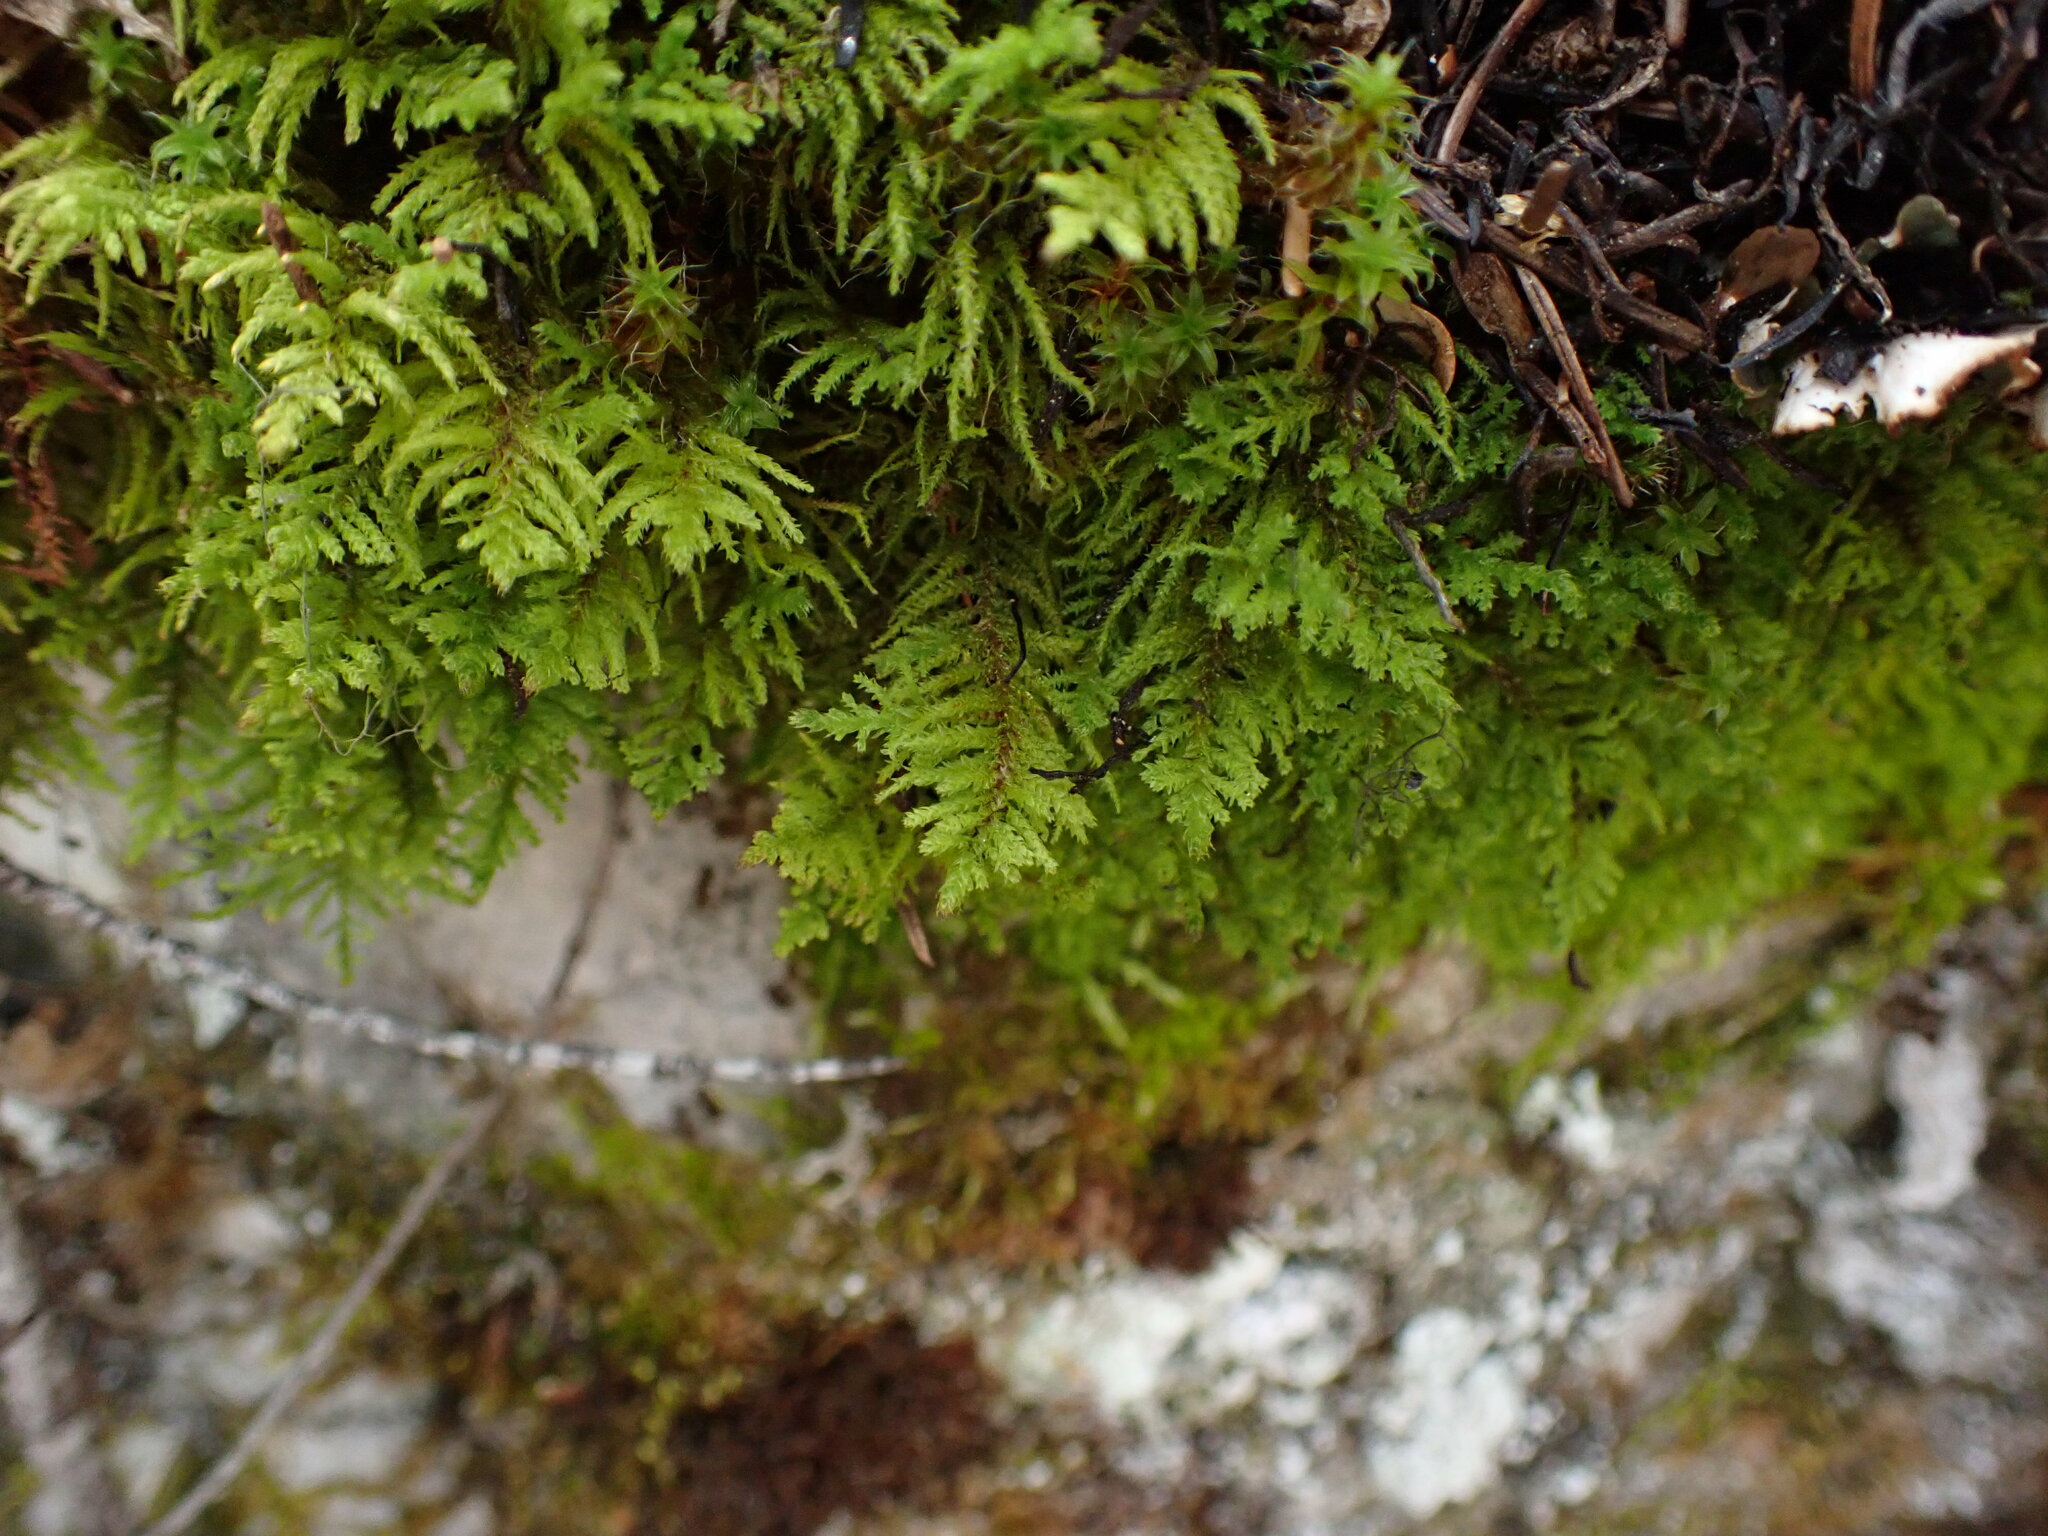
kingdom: Plantae
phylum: Bryophyta
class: Bryopsida
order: Hypnales
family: Thuidiaceae
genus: Abietinella
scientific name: Abietinella abietina
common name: Wiry fern moss
